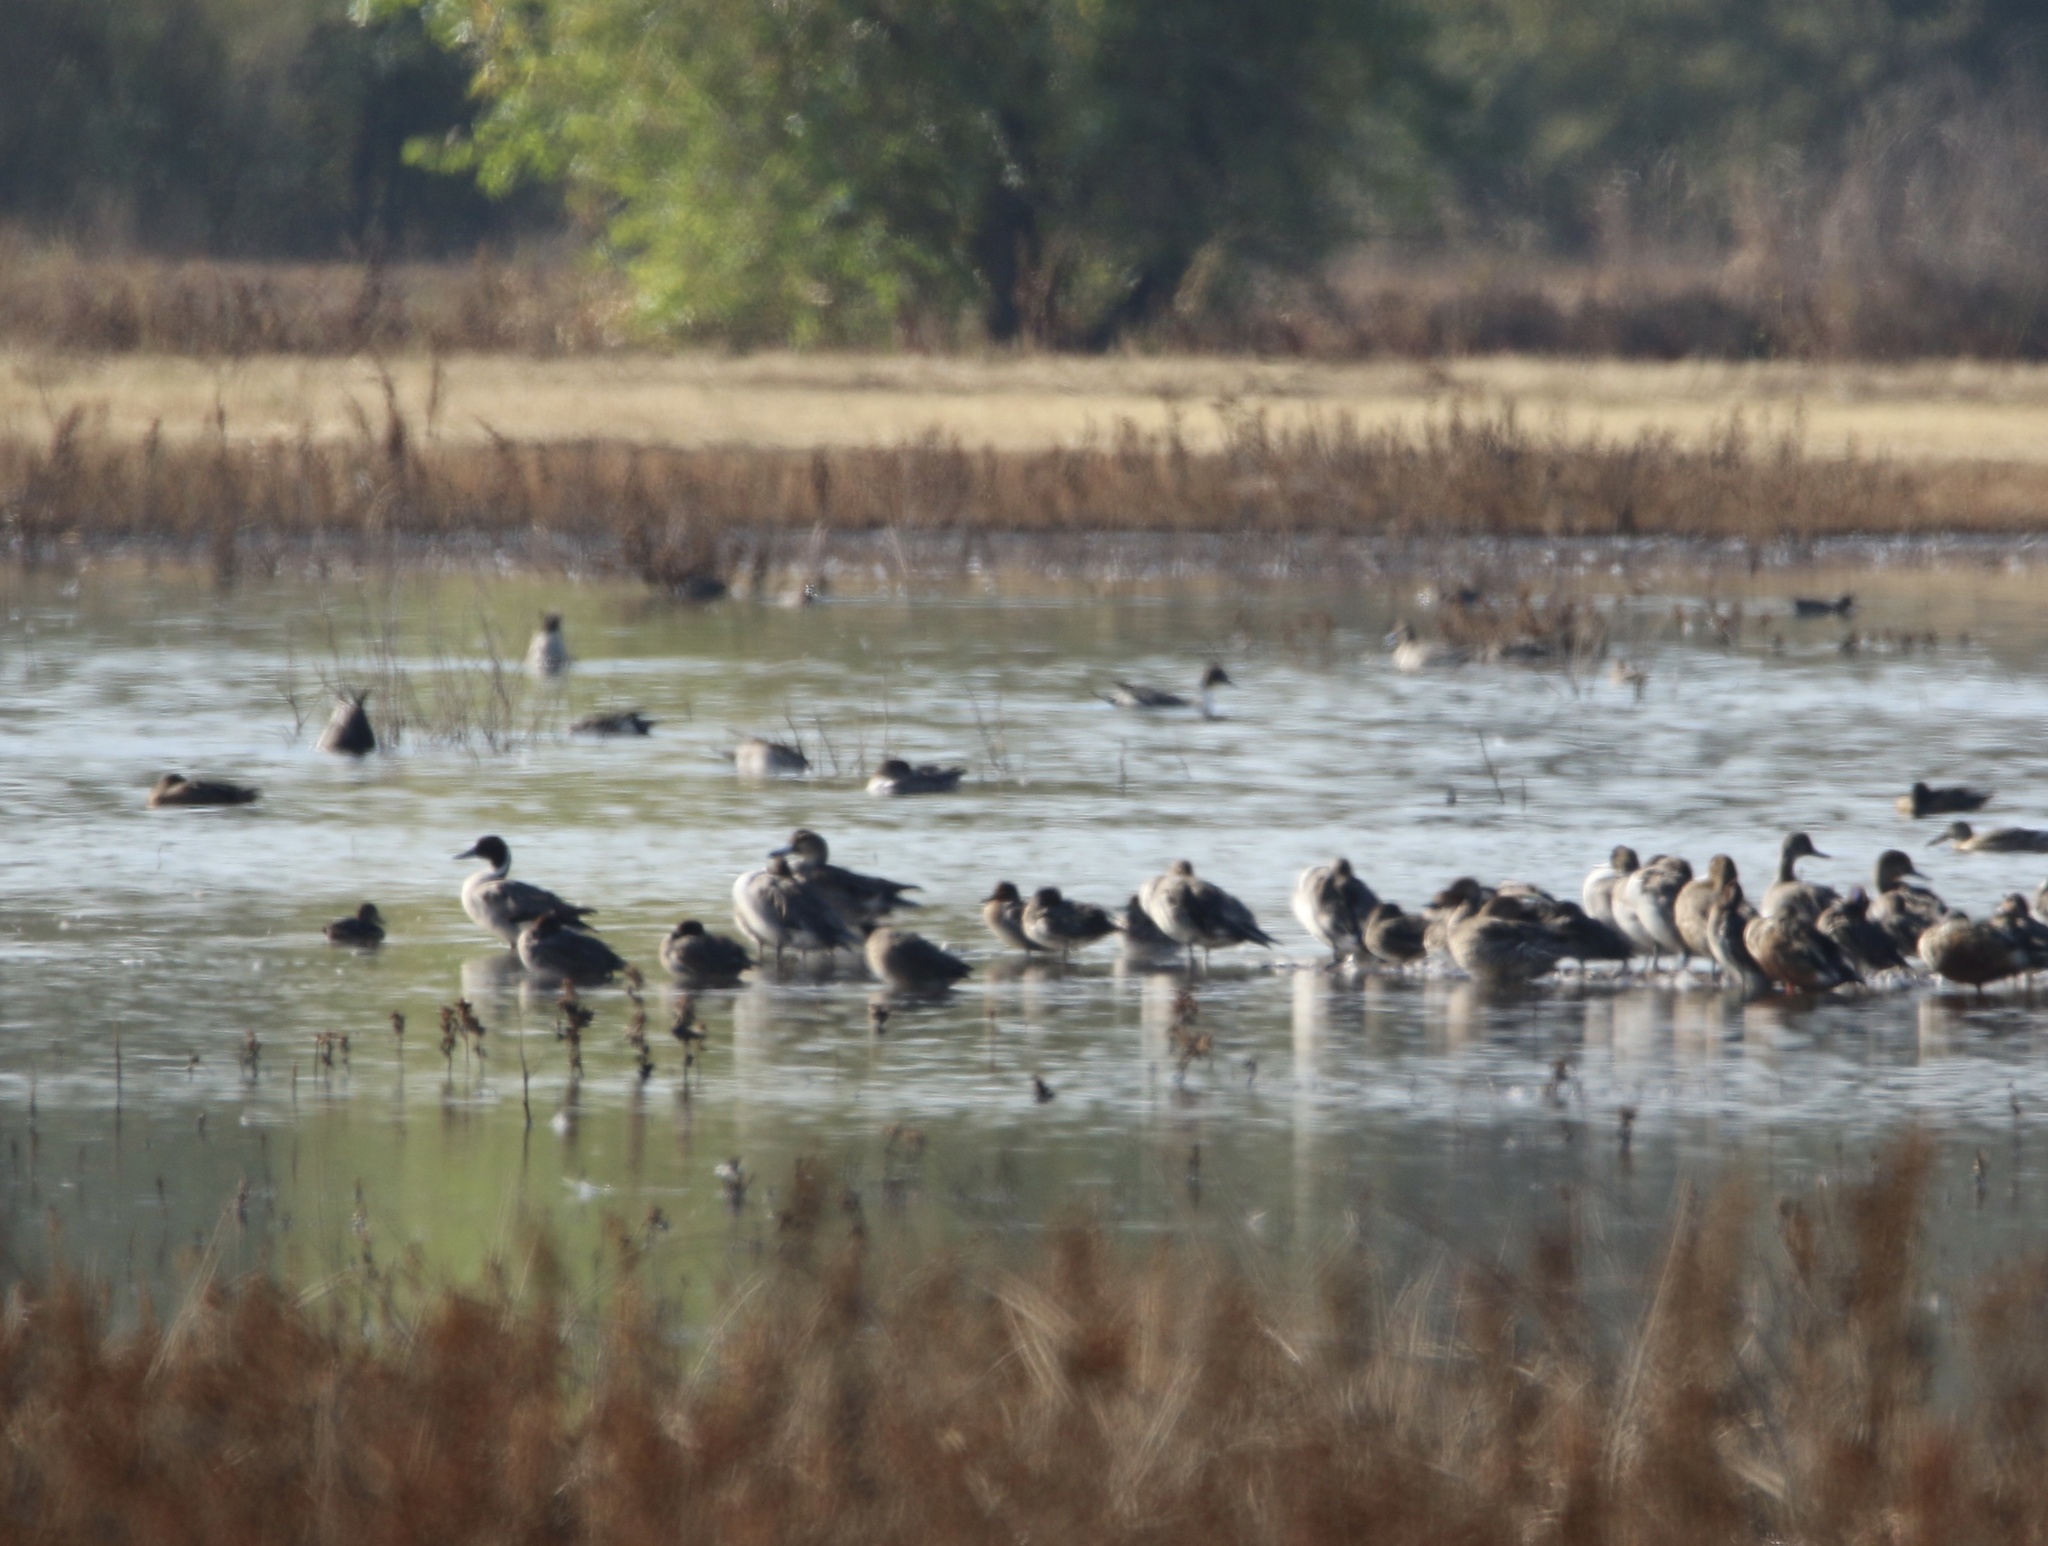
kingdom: Animalia
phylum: Chordata
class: Aves
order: Anseriformes
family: Anatidae
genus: Anas
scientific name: Anas acuta
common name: Northern pintail
